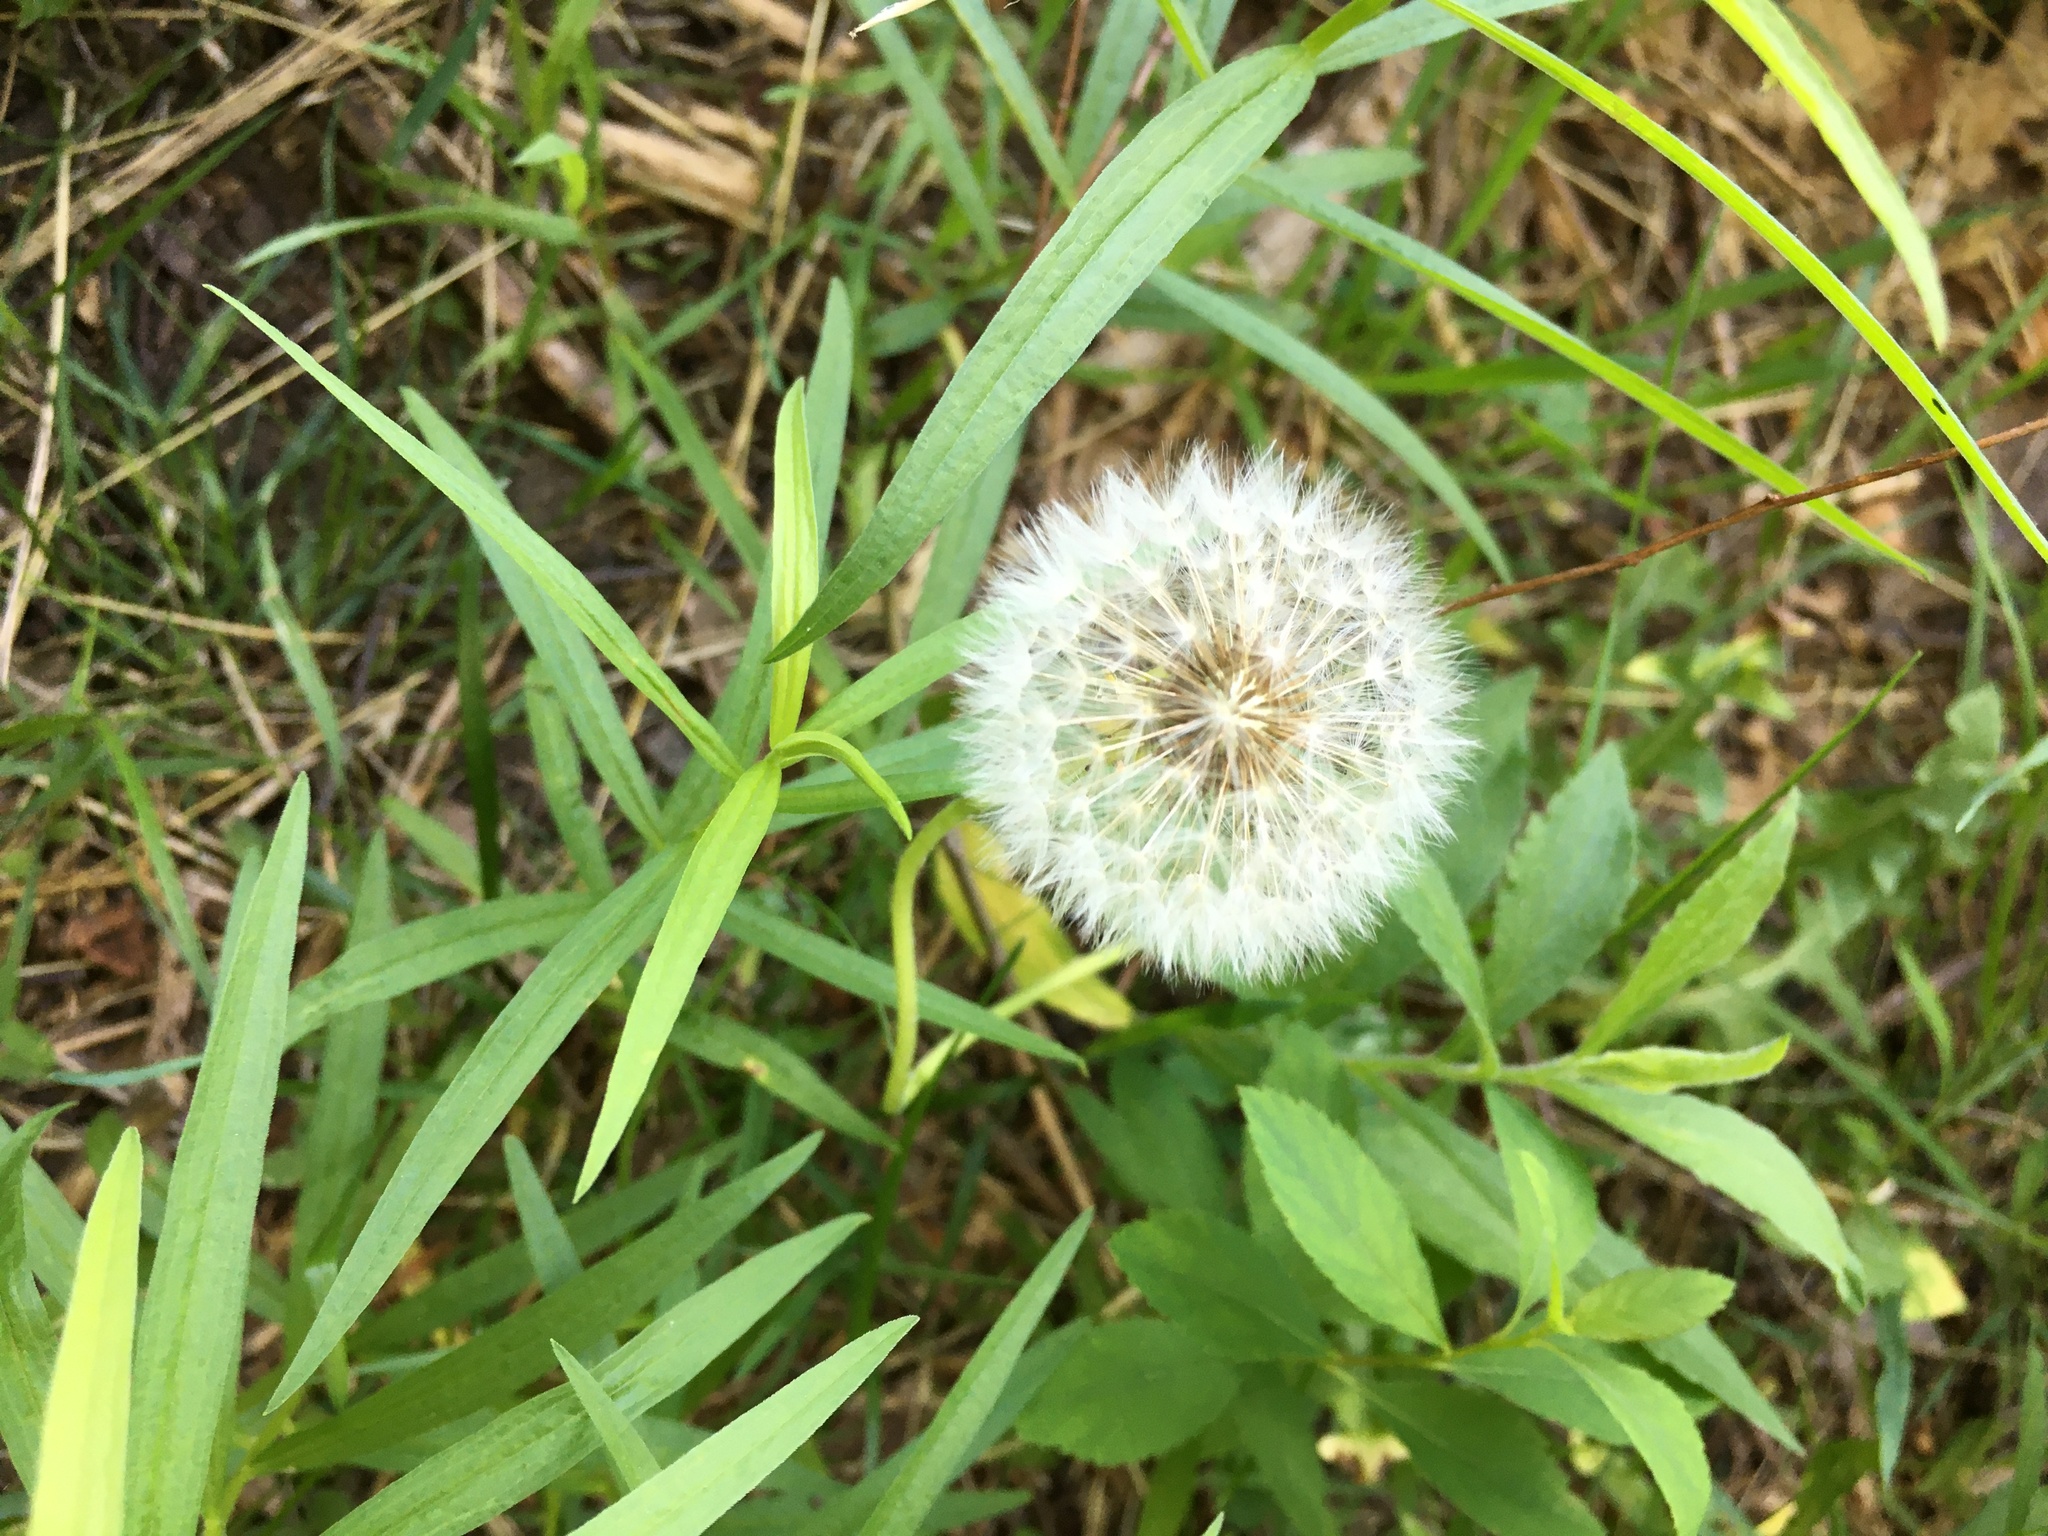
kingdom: Plantae
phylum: Tracheophyta
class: Magnoliopsida
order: Asterales
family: Asteraceae
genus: Taraxacum
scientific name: Taraxacum officinale
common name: Common dandelion
